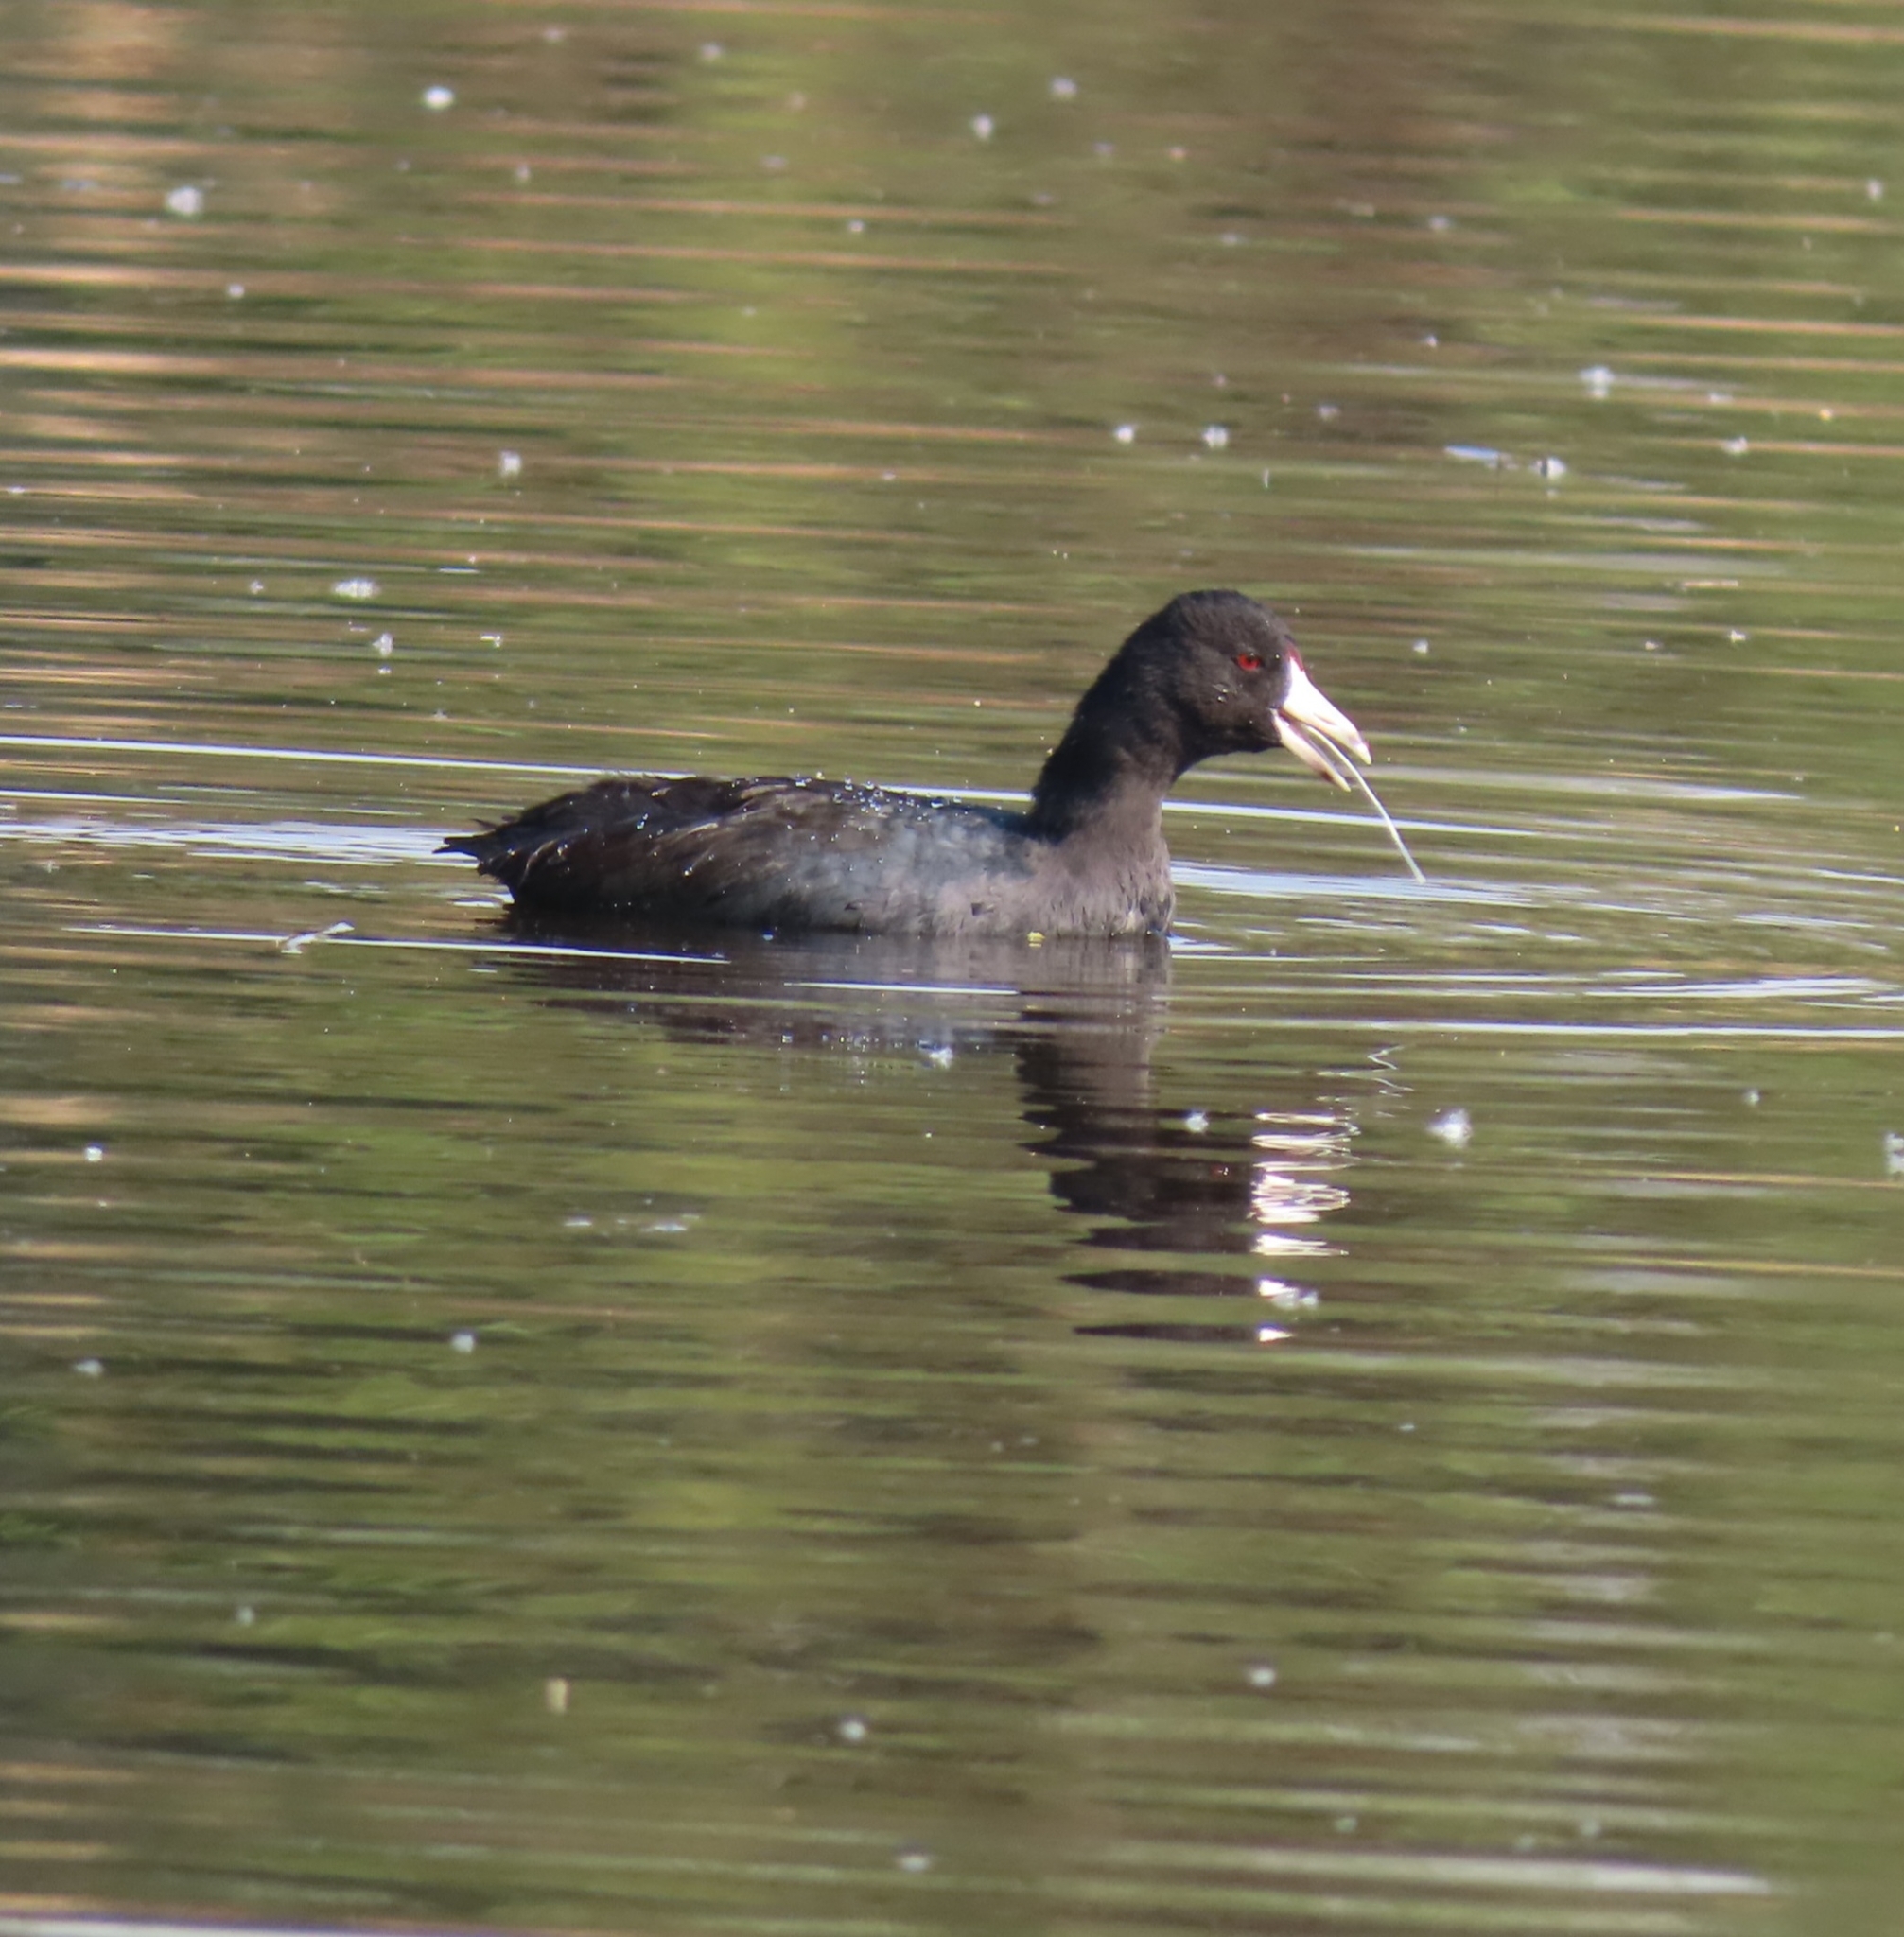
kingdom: Animalia
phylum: Chordata
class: Aves
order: Gruiformes
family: Rallidae
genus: Fulica
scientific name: Fulica americana
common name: American coot
